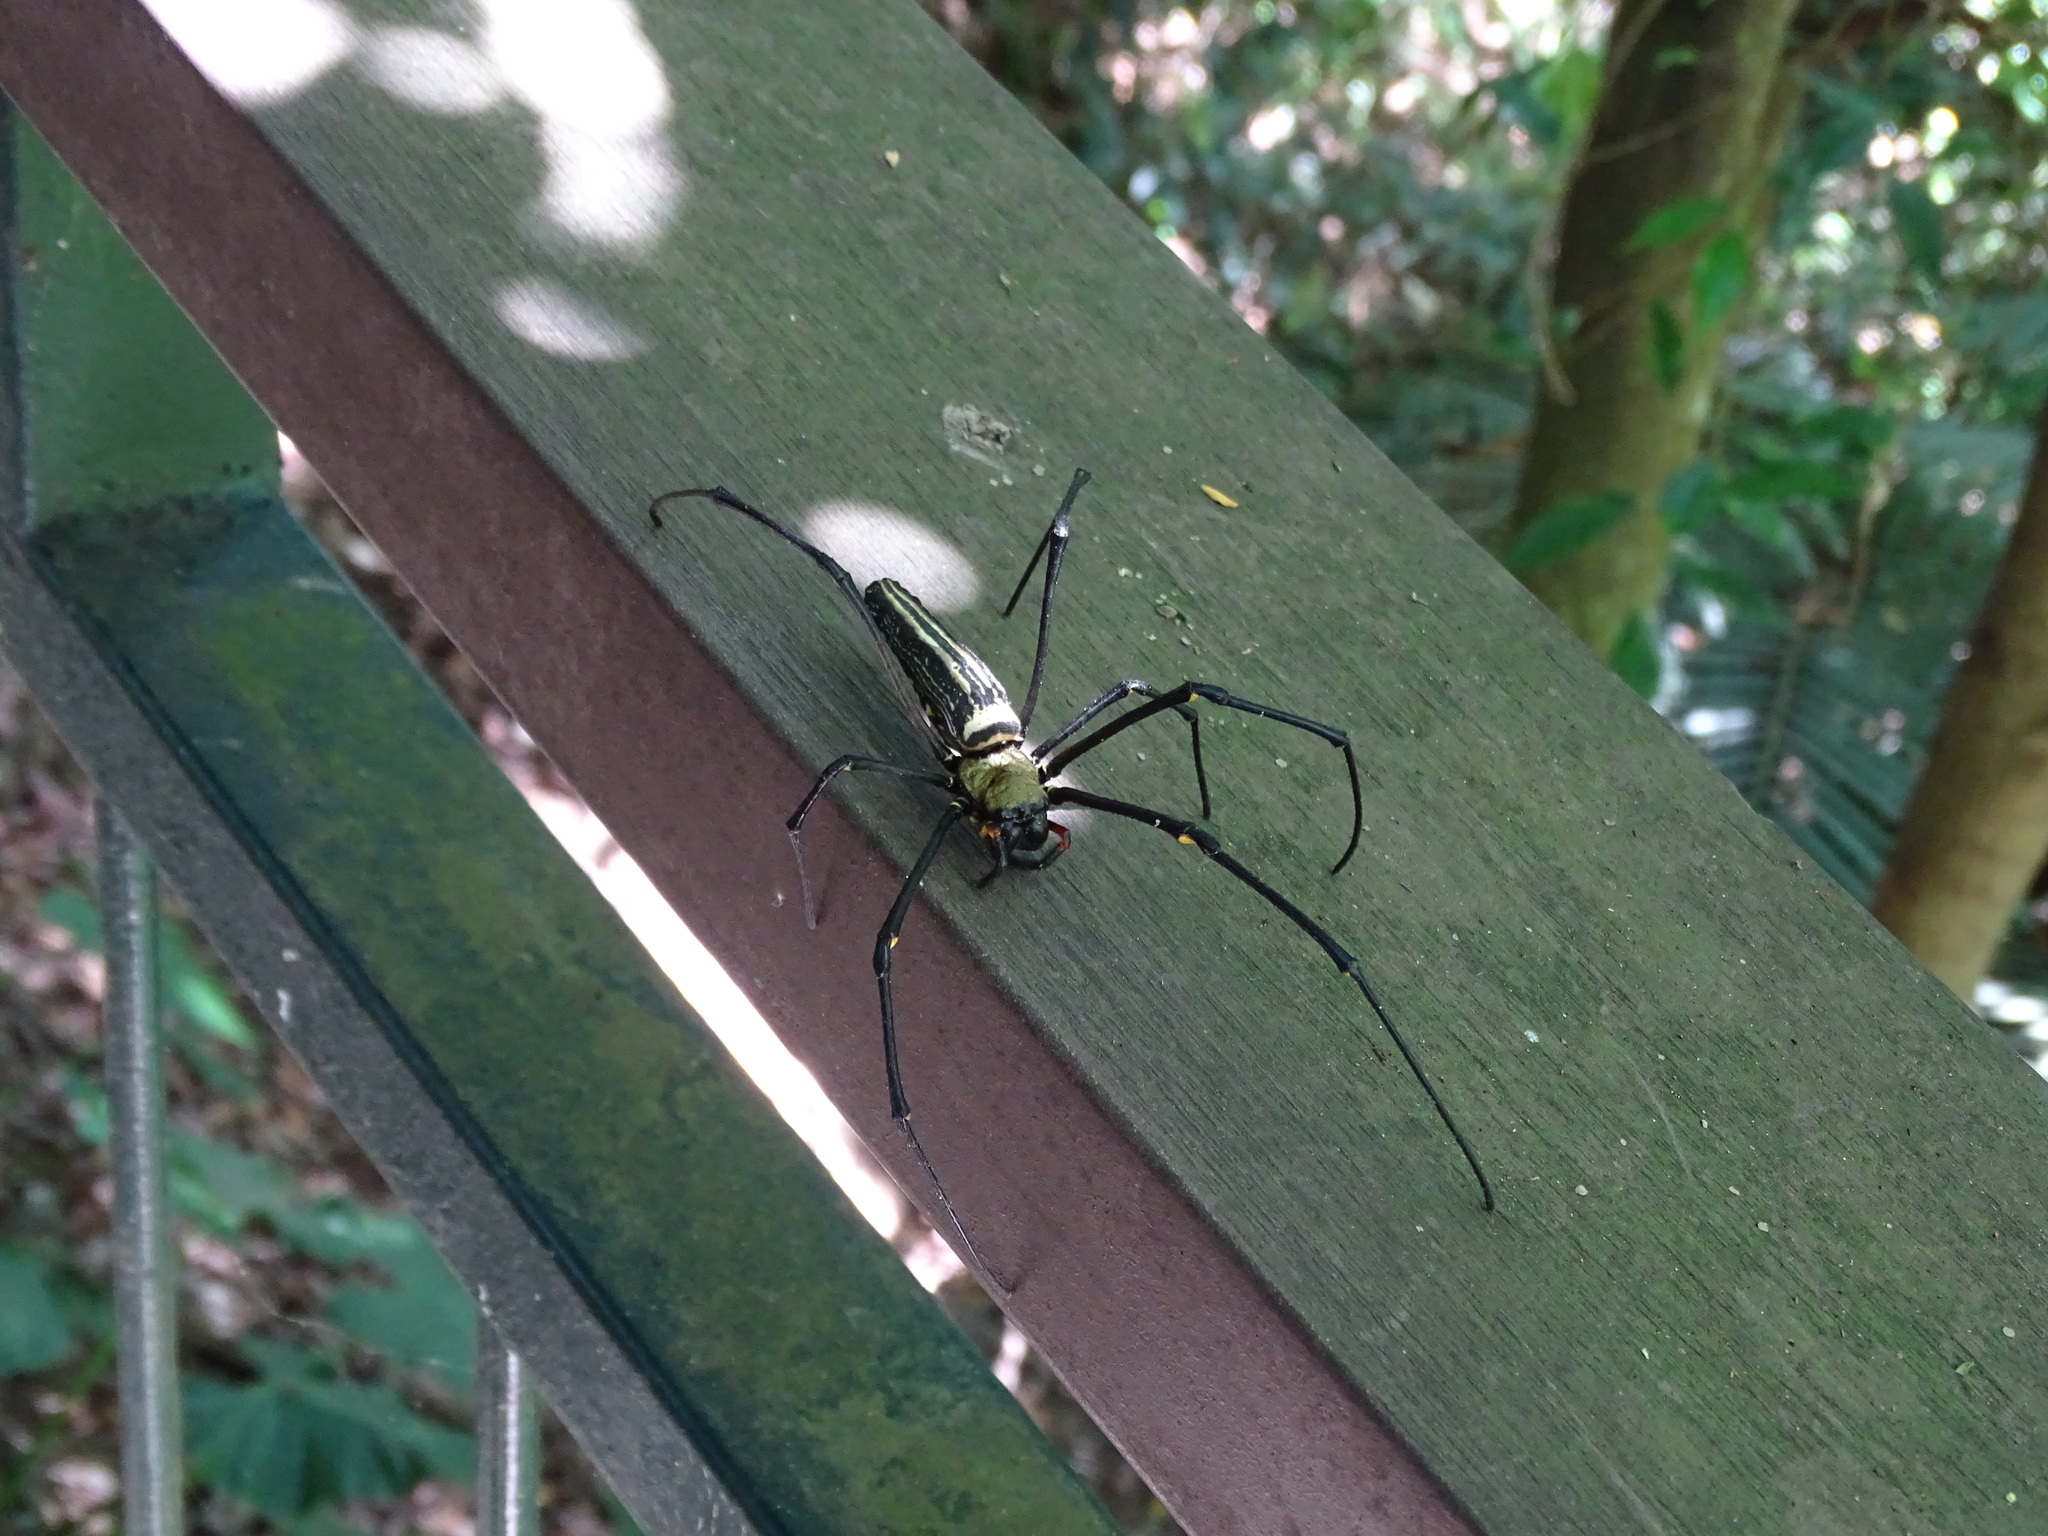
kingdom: Animalia
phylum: Arthropoda
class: Arachnida
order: Araneae
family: Araneidae
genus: Nephila
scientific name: Nephila pilipes
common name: Giant golden orb weaver
